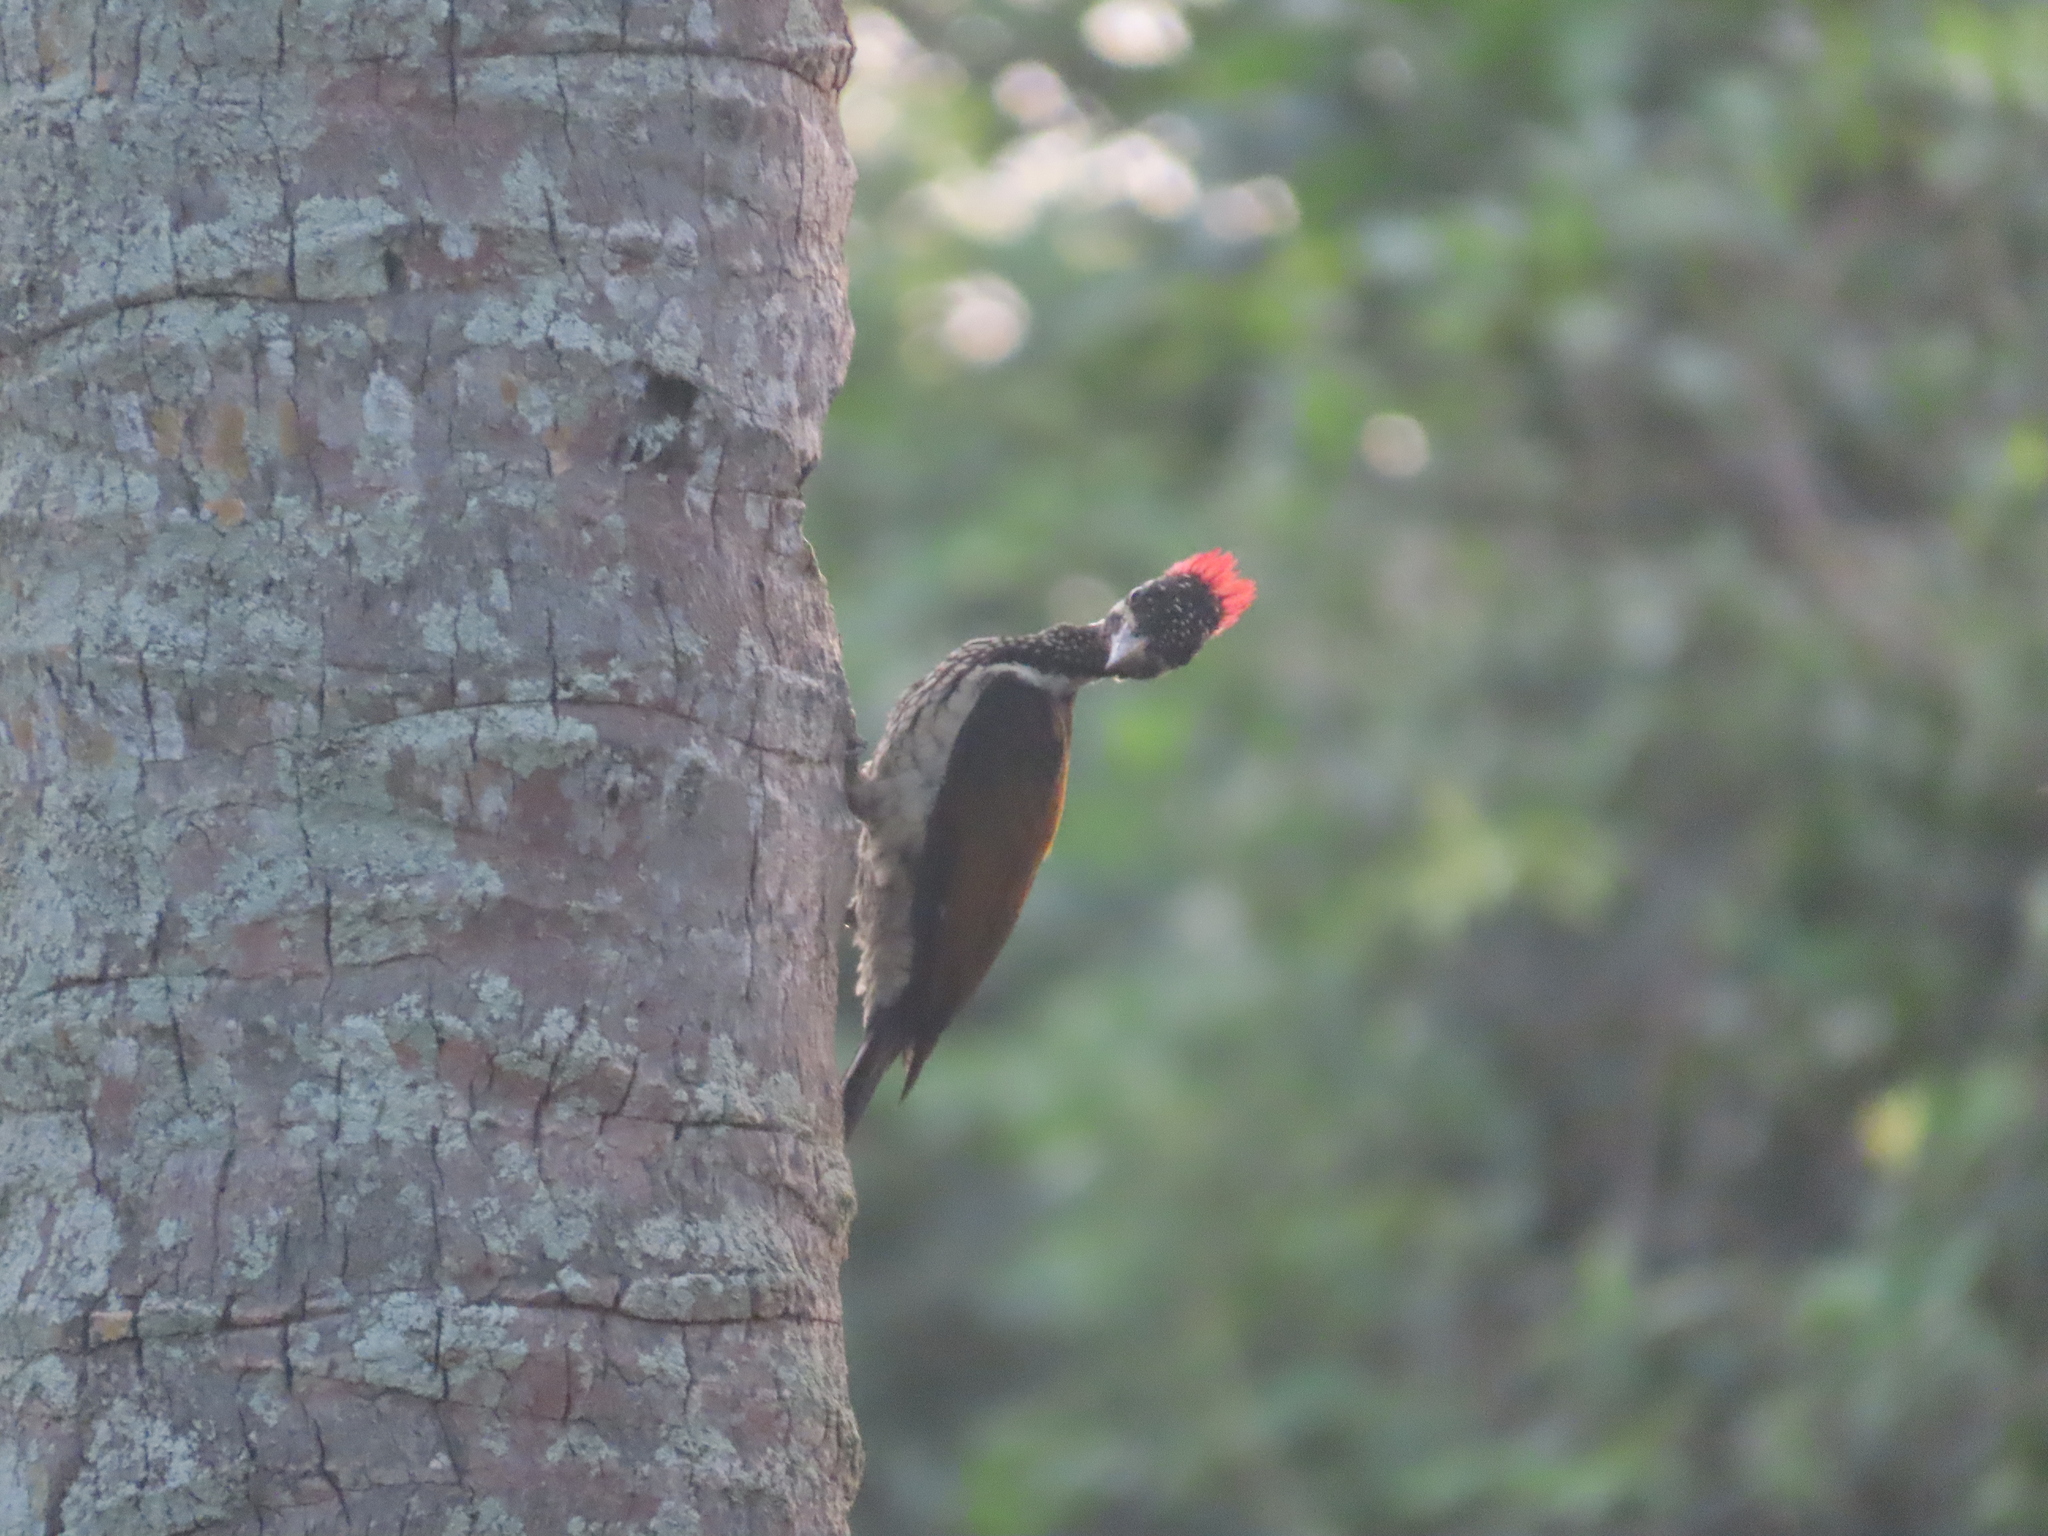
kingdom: Animalia
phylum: Chordata
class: Aves
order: Piciformes
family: Picidae
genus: Dinopium
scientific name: Dinopium benghalense
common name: Black-rumped flameback
